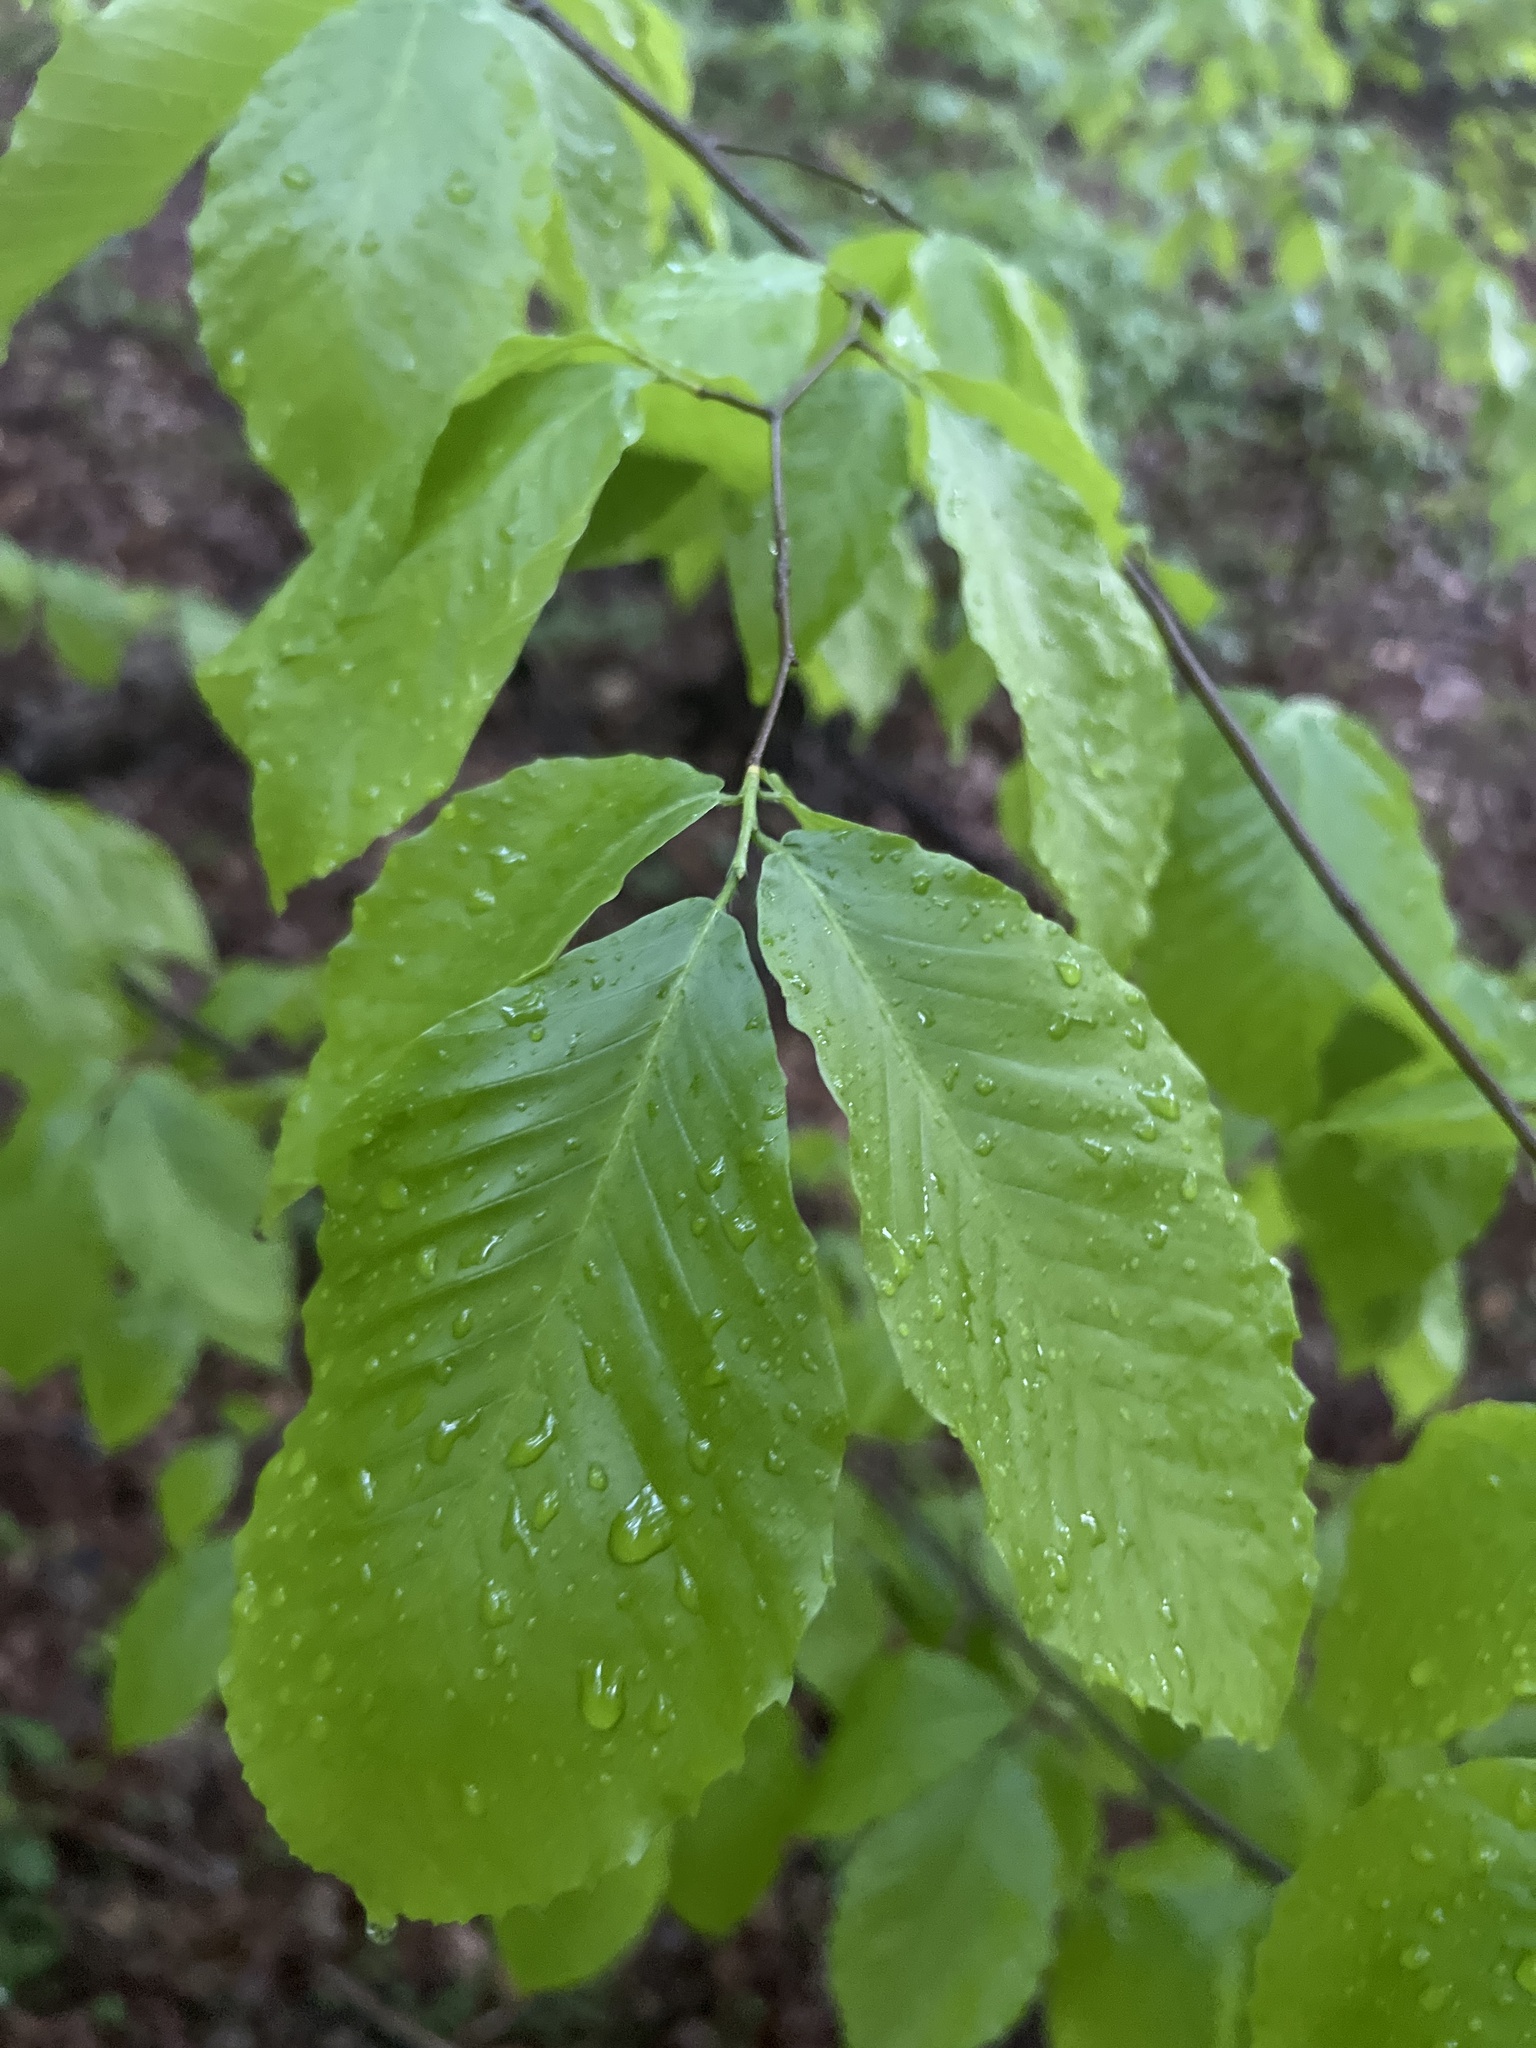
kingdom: Plantae
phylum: Tracheophyta
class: Magnoliopsida
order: Fagales
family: Fagaceae
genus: Fagus
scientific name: Fagus grandifolia
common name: American beech
